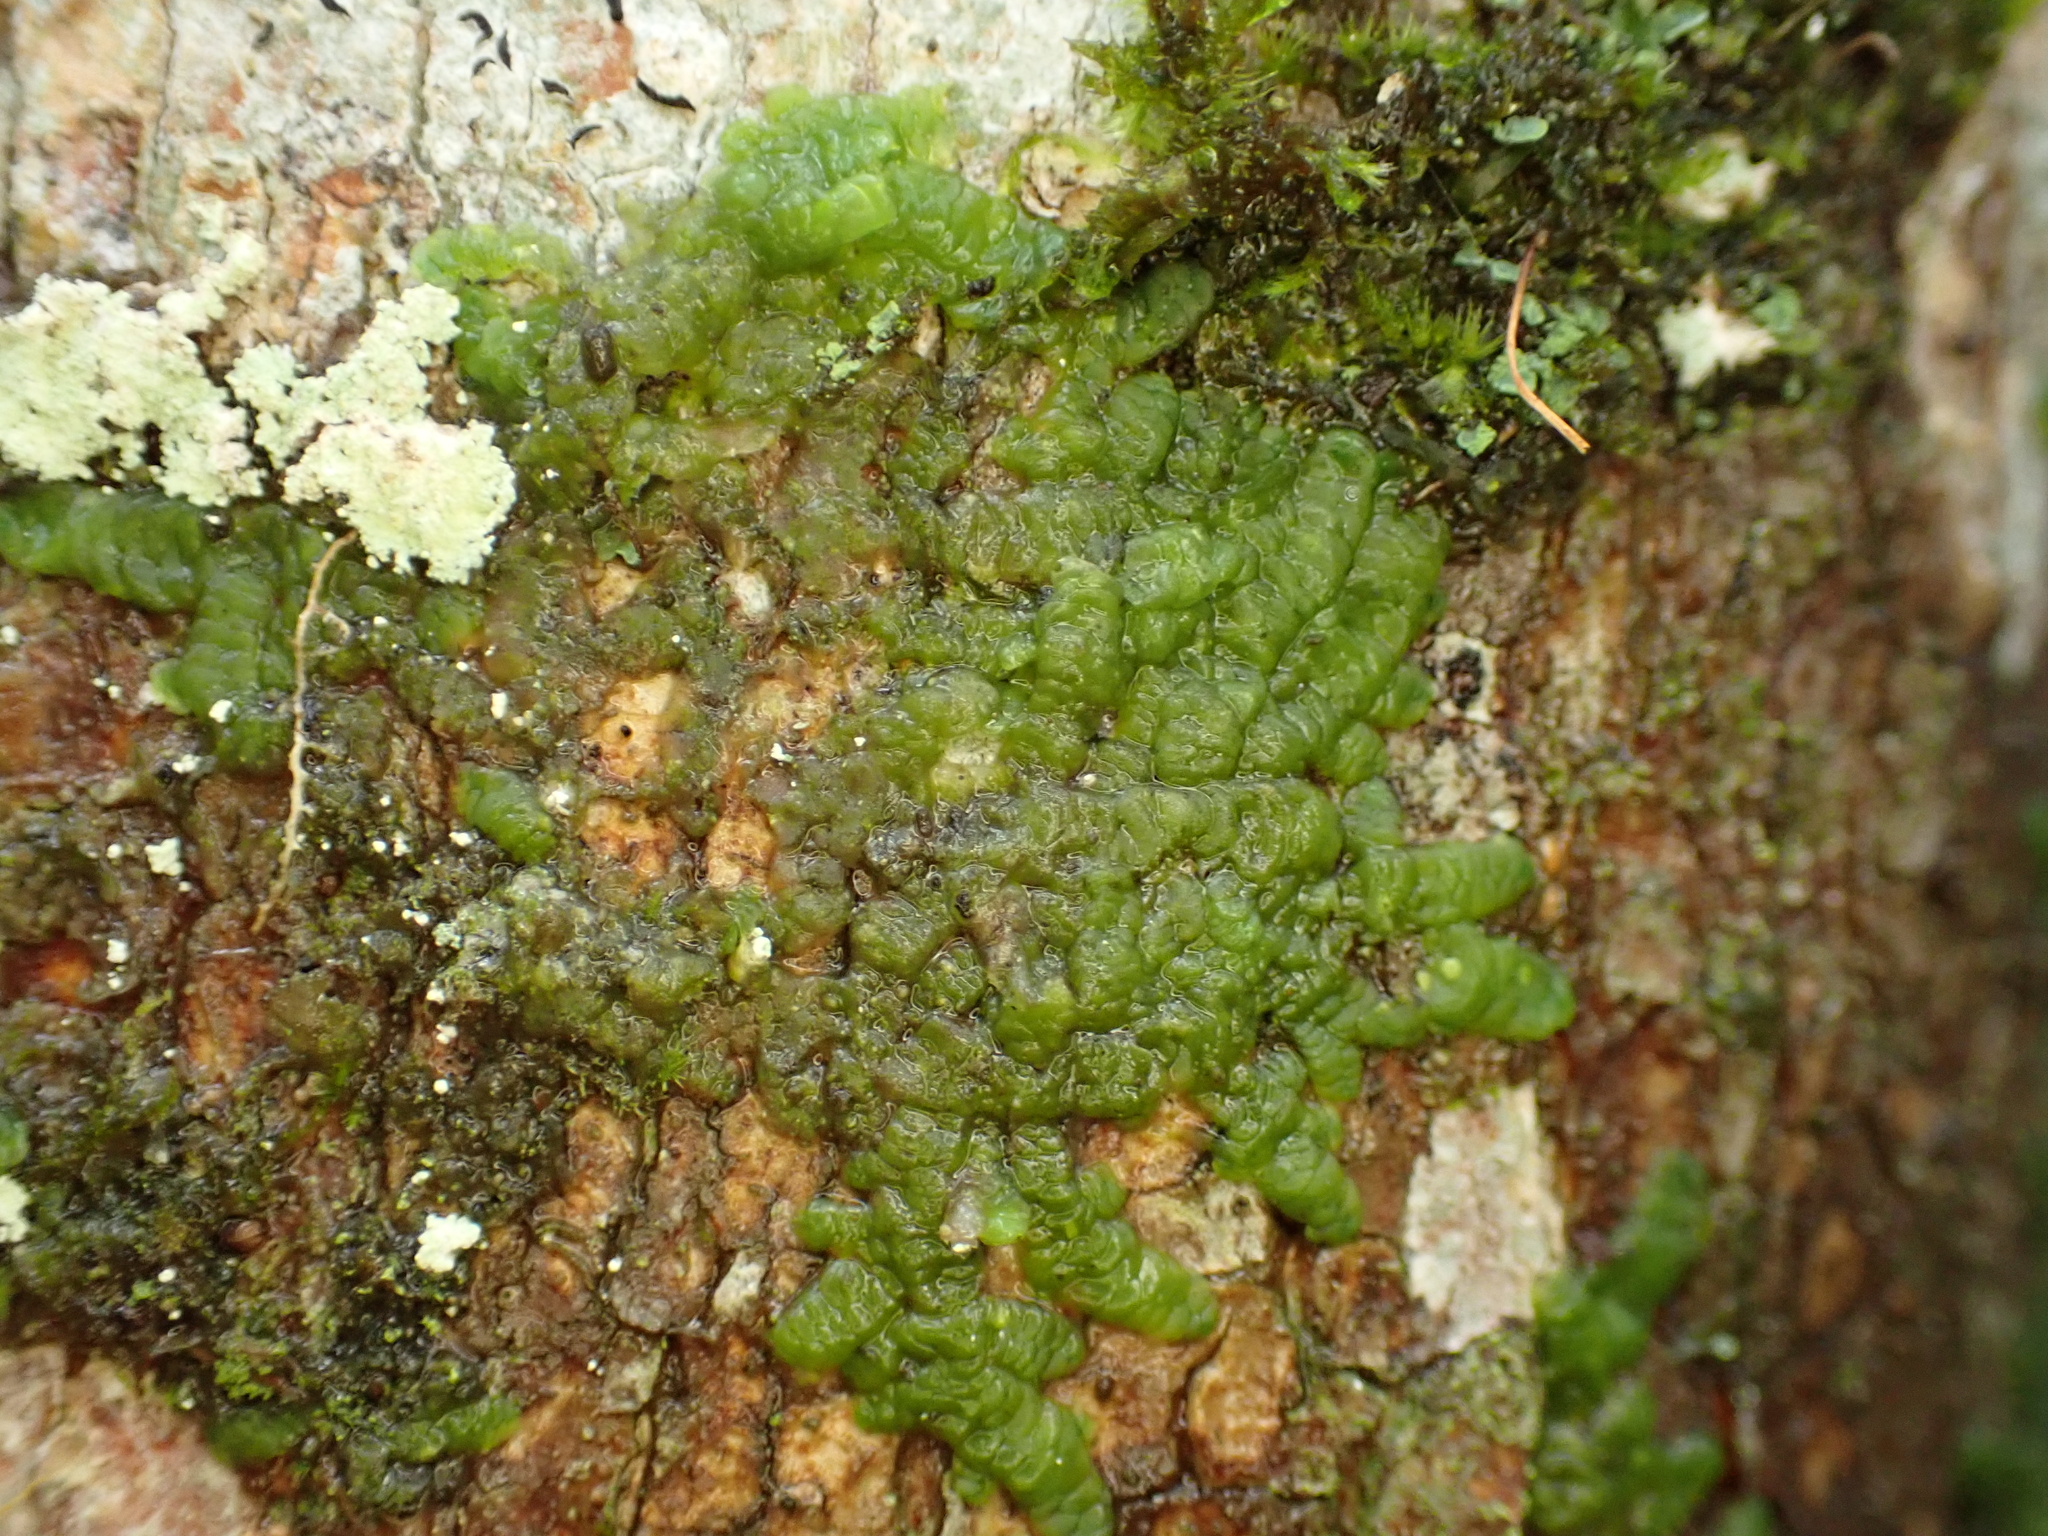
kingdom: Plantae
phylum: Marchantiophyta
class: Jungermanniopsida
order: Porellales
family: Radulaceae
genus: Radula
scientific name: Radula complanata
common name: Flat-leaved scalewort
